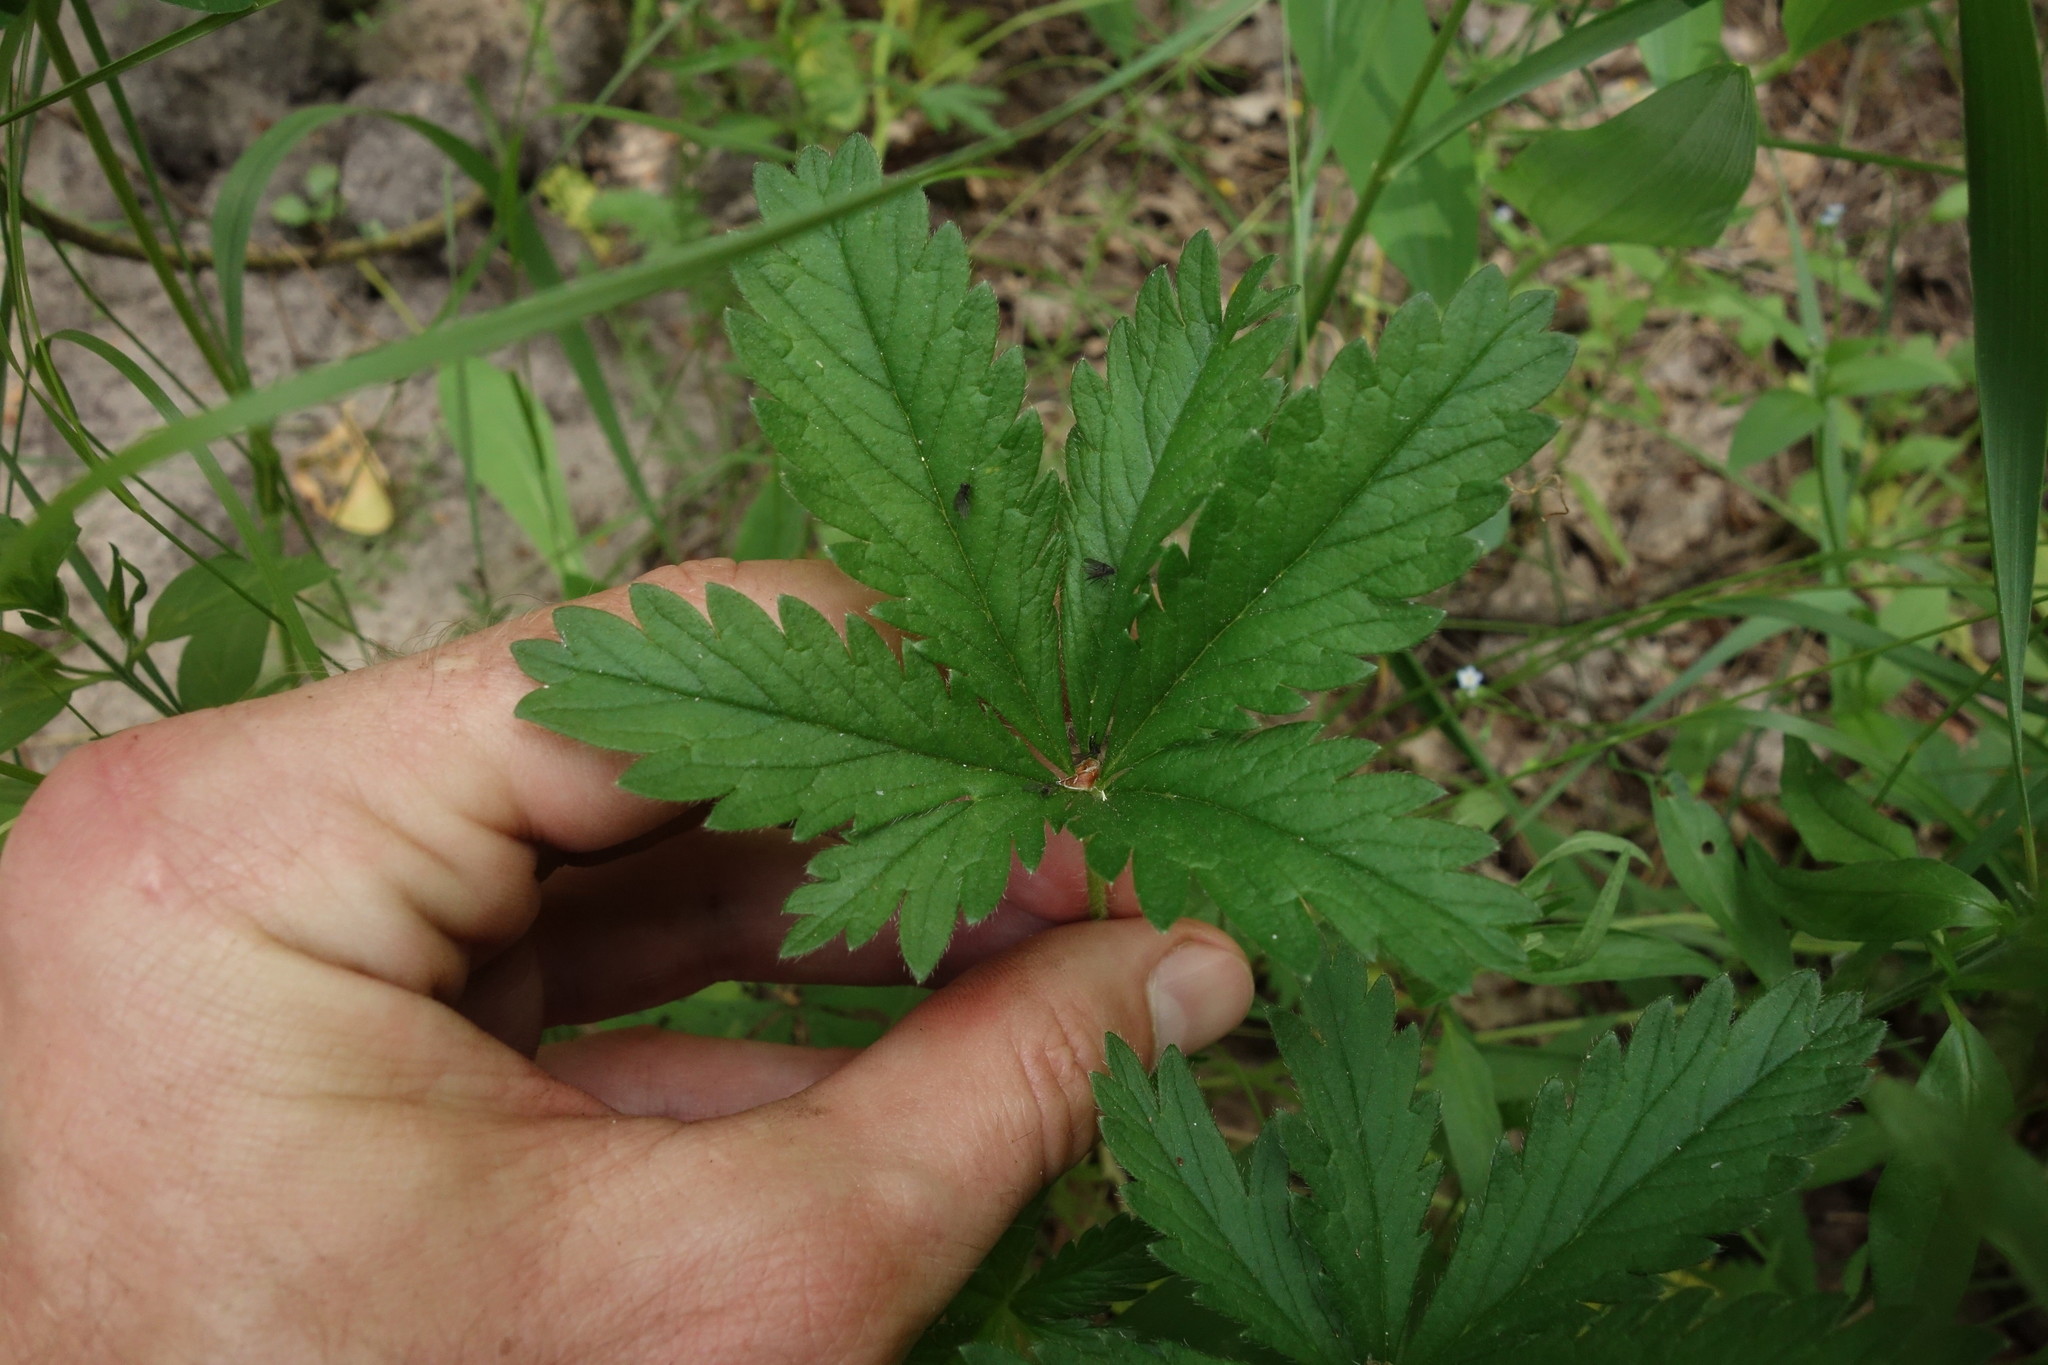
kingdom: Plantae
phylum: Tracheophyta
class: Magnoliopsida
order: Rosales
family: Rosaceae
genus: Potentilla
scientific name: Potentilla thuringiaca
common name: European cinquefoil
